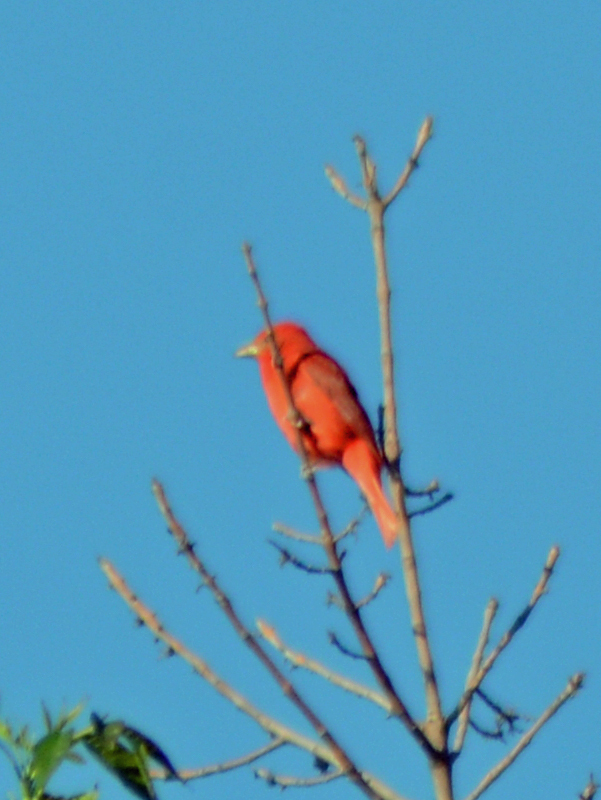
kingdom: Animalia
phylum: Chordata
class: Aves
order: Passeriformes
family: Cardinalidae
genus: Piranga
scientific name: Piranga rubra
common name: Summer tanager
